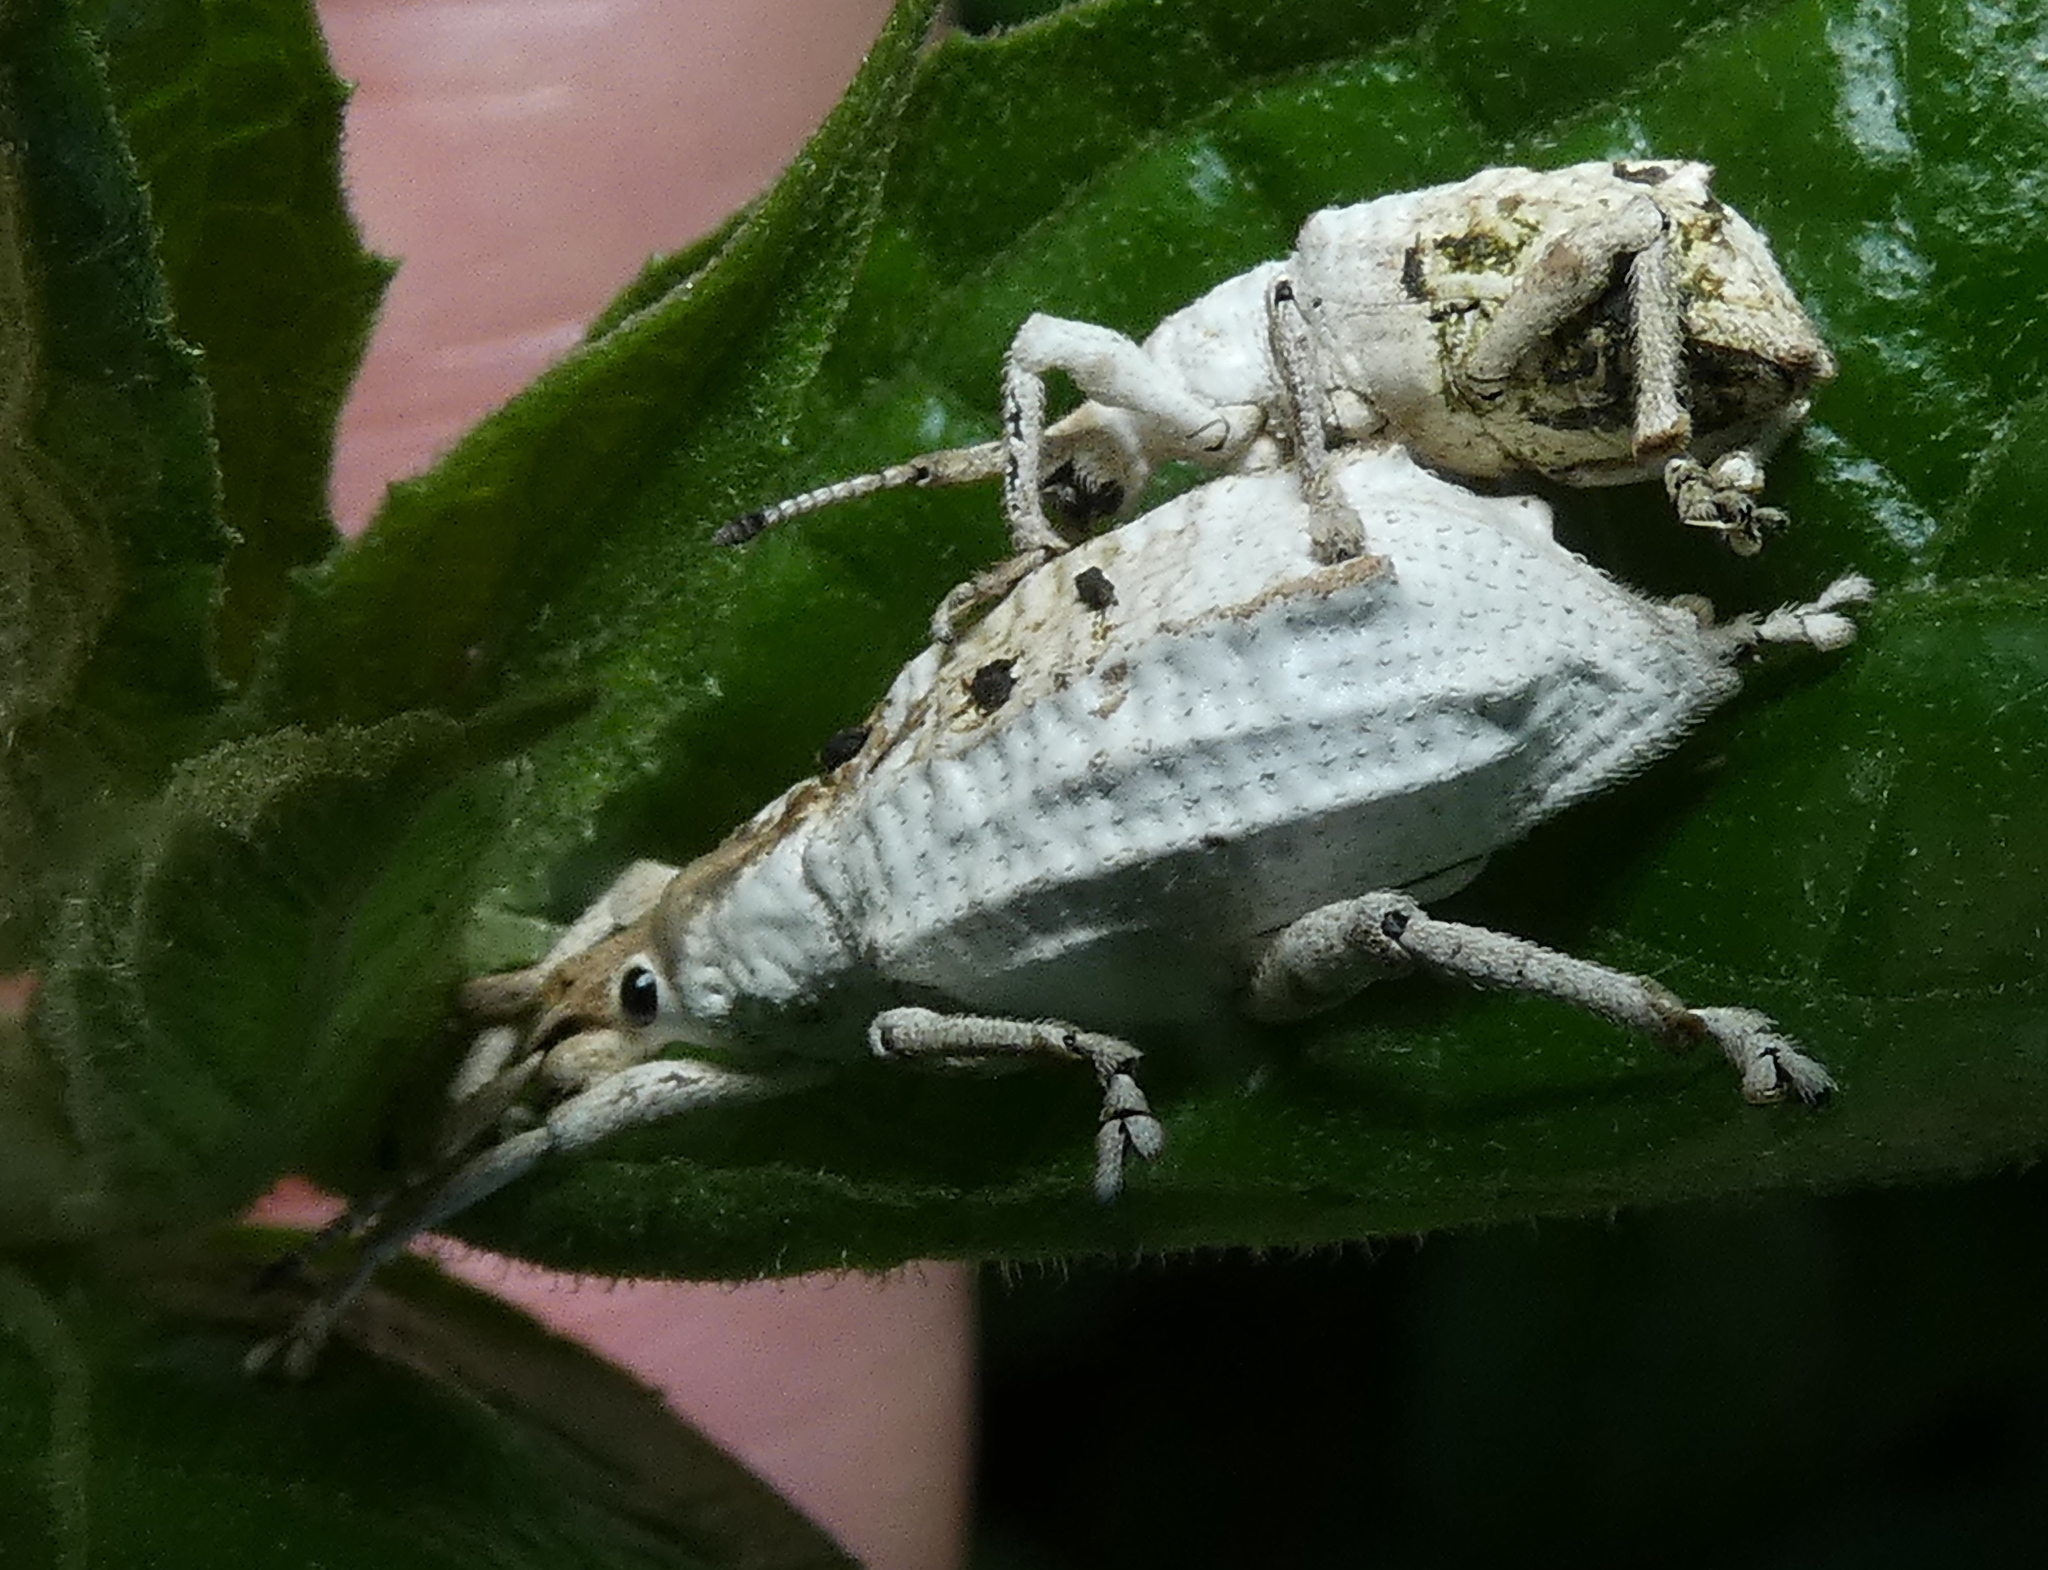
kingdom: Animalia
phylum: Arthropoda
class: Insecta
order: Coleoptera
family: Curculionidae
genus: Compsus
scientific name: Compsus niveus
